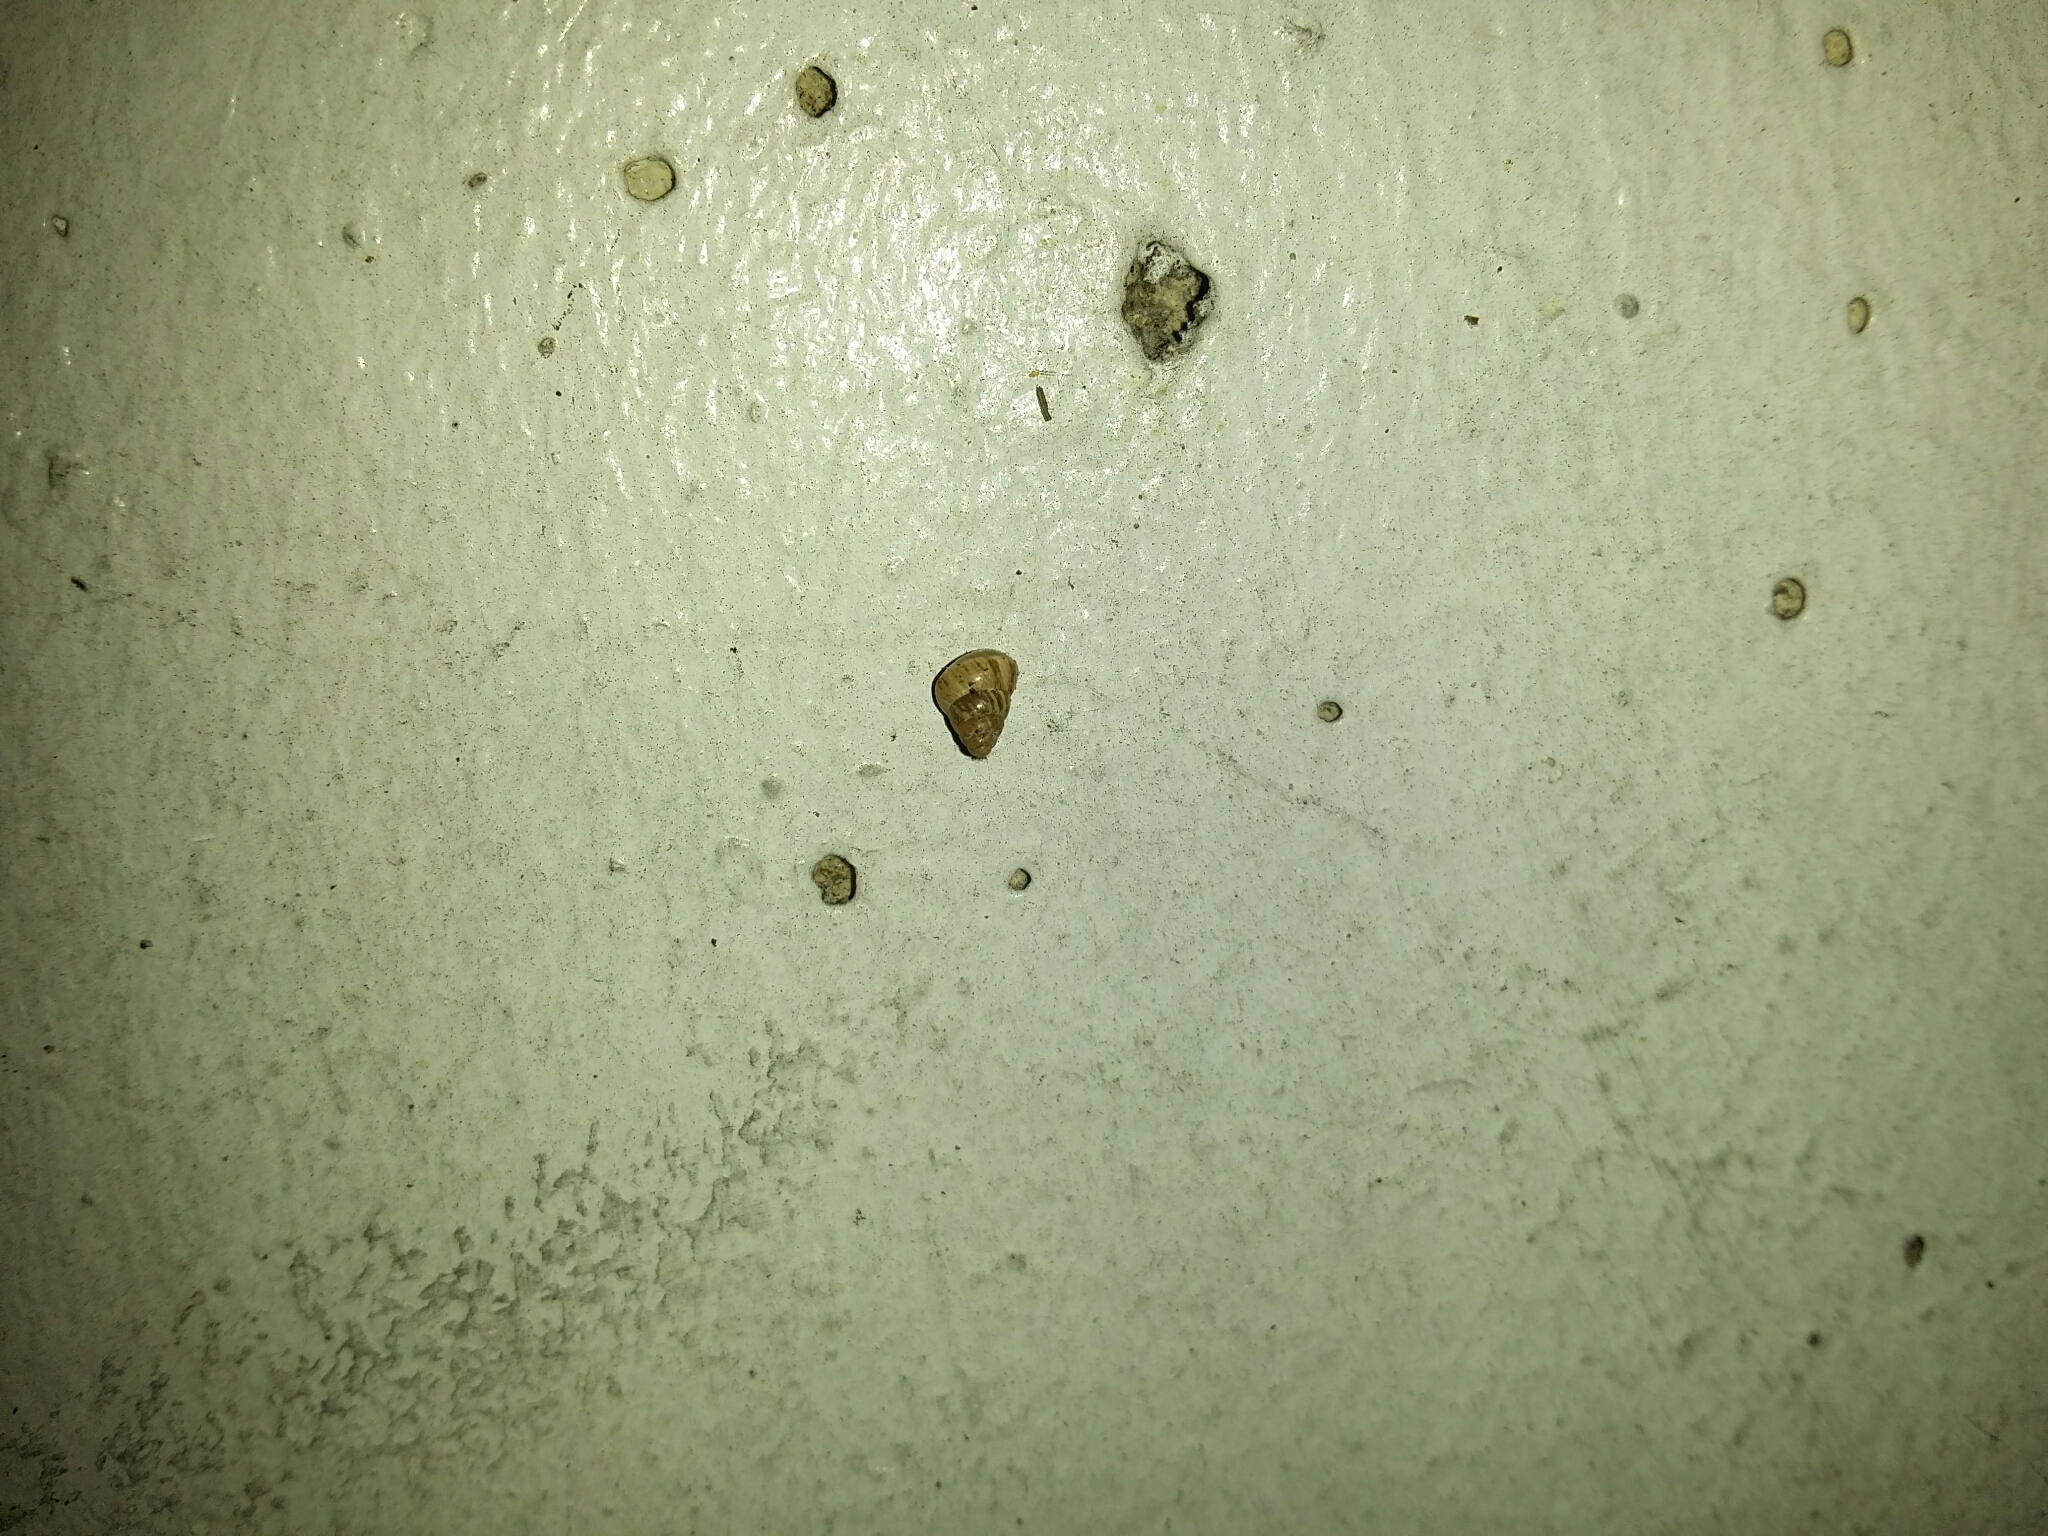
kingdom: Animalia
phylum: Mollusca
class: Gastropoda
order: Stylommatophora
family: Geomitridae
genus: Cochlicella
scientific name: Cochlicella barbara
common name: Potbellied helicellid
